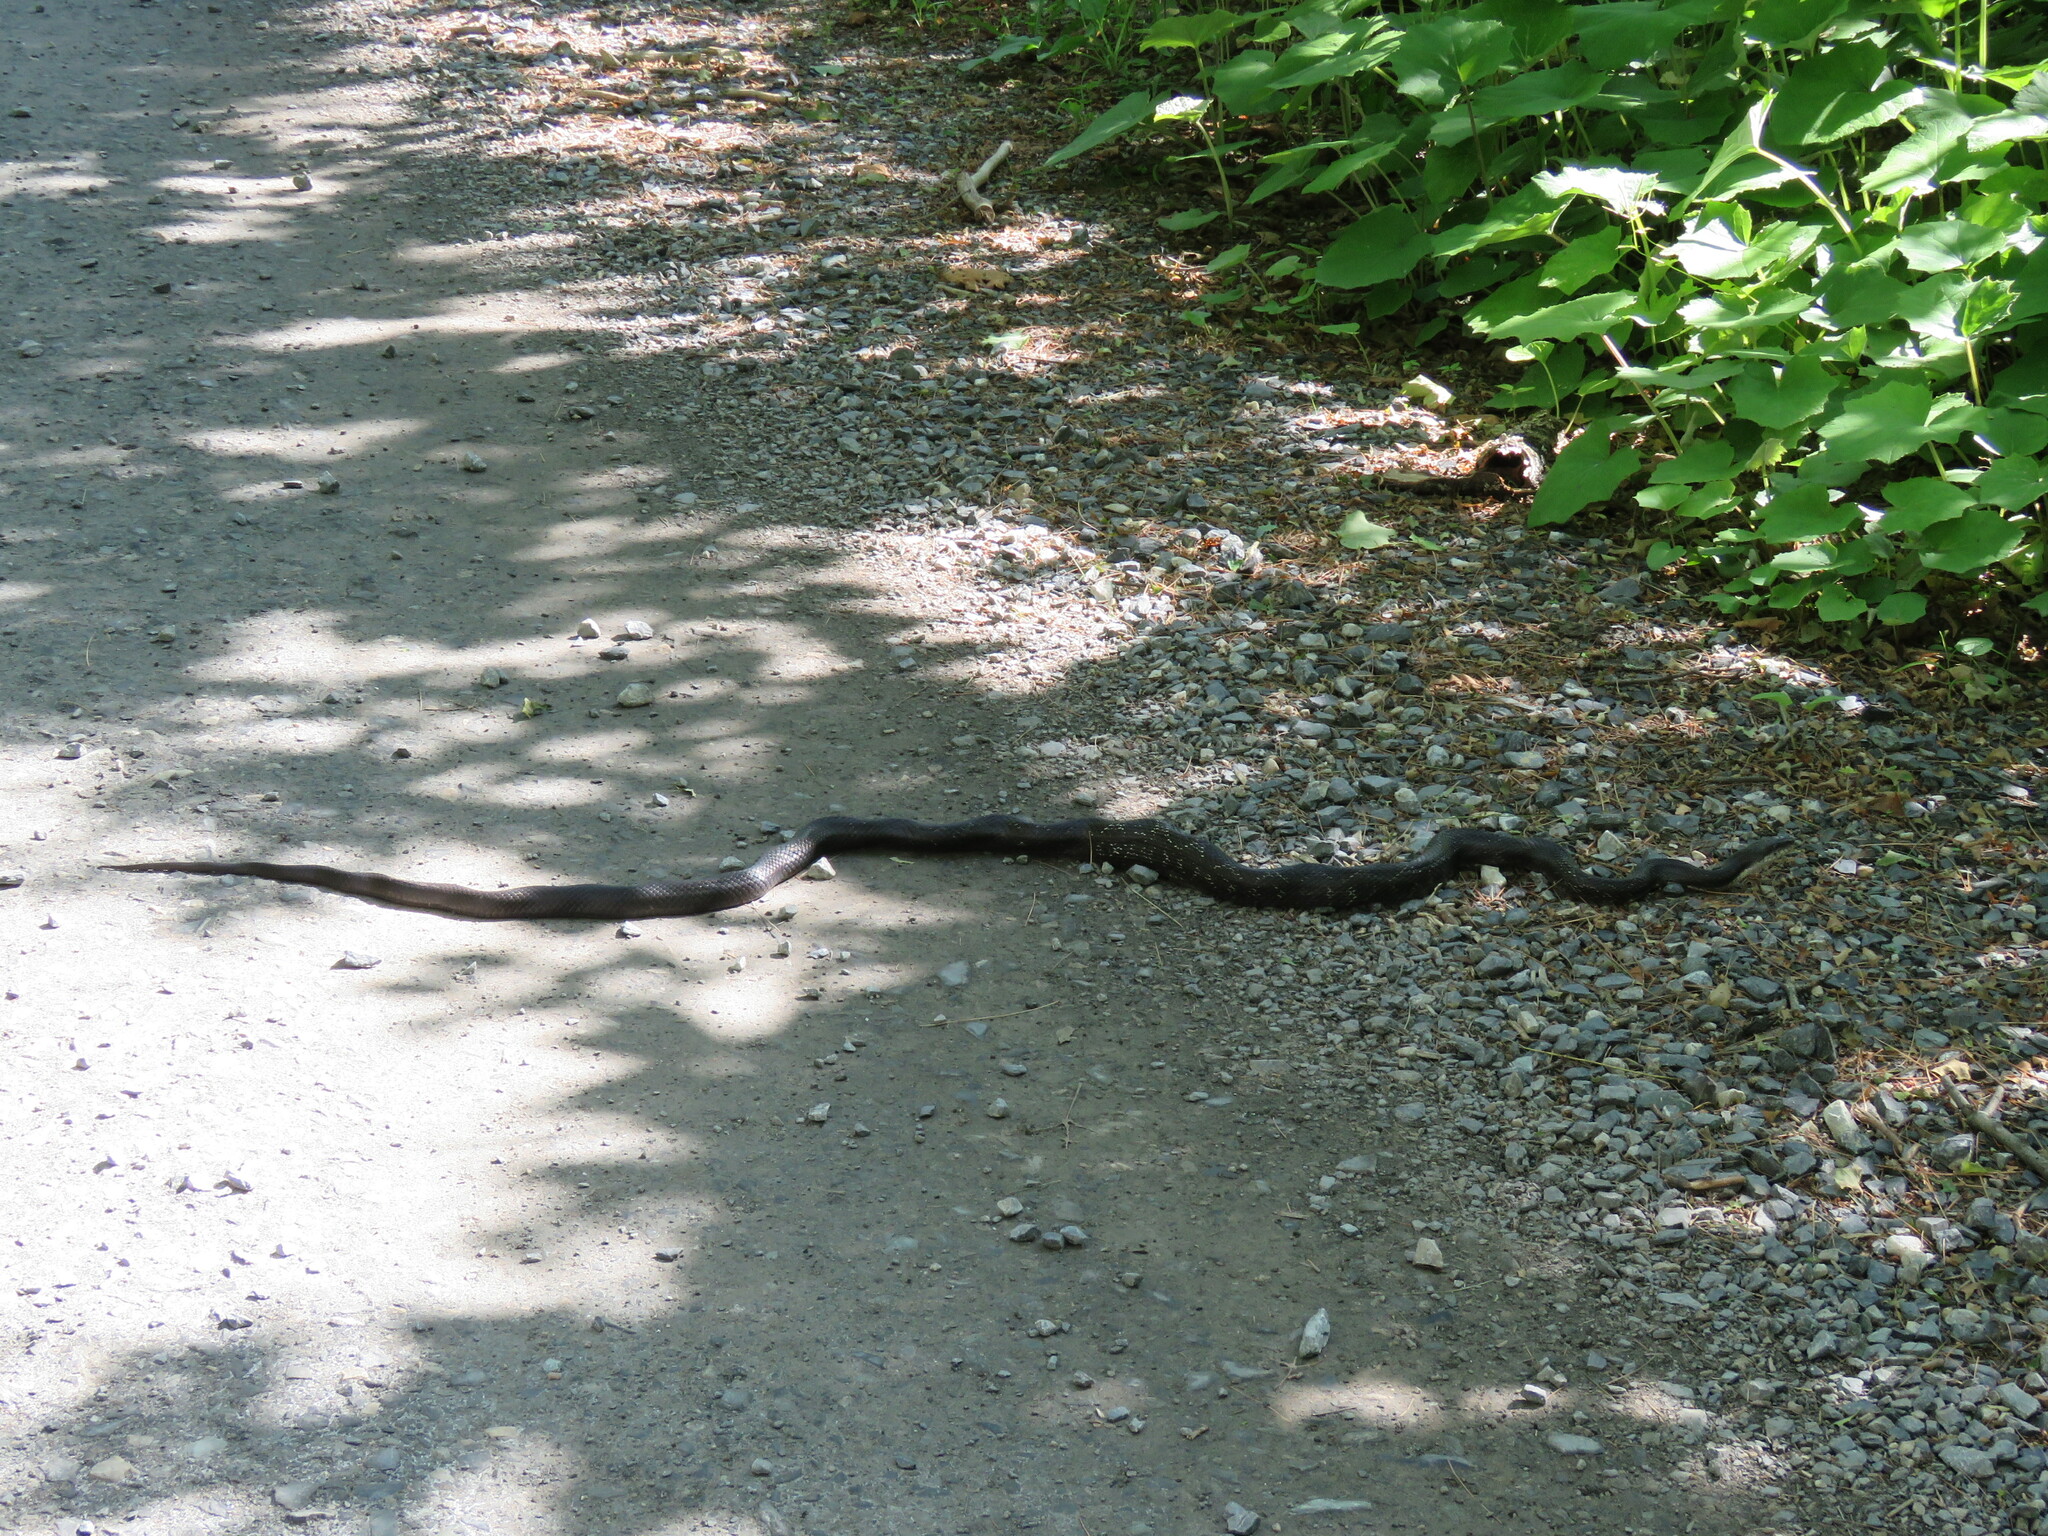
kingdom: Animalia
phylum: Chordata
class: Squamata
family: Colubridae
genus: Pantherophis
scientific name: Pantherophis alleghaniensis
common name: Eastern rat snake
